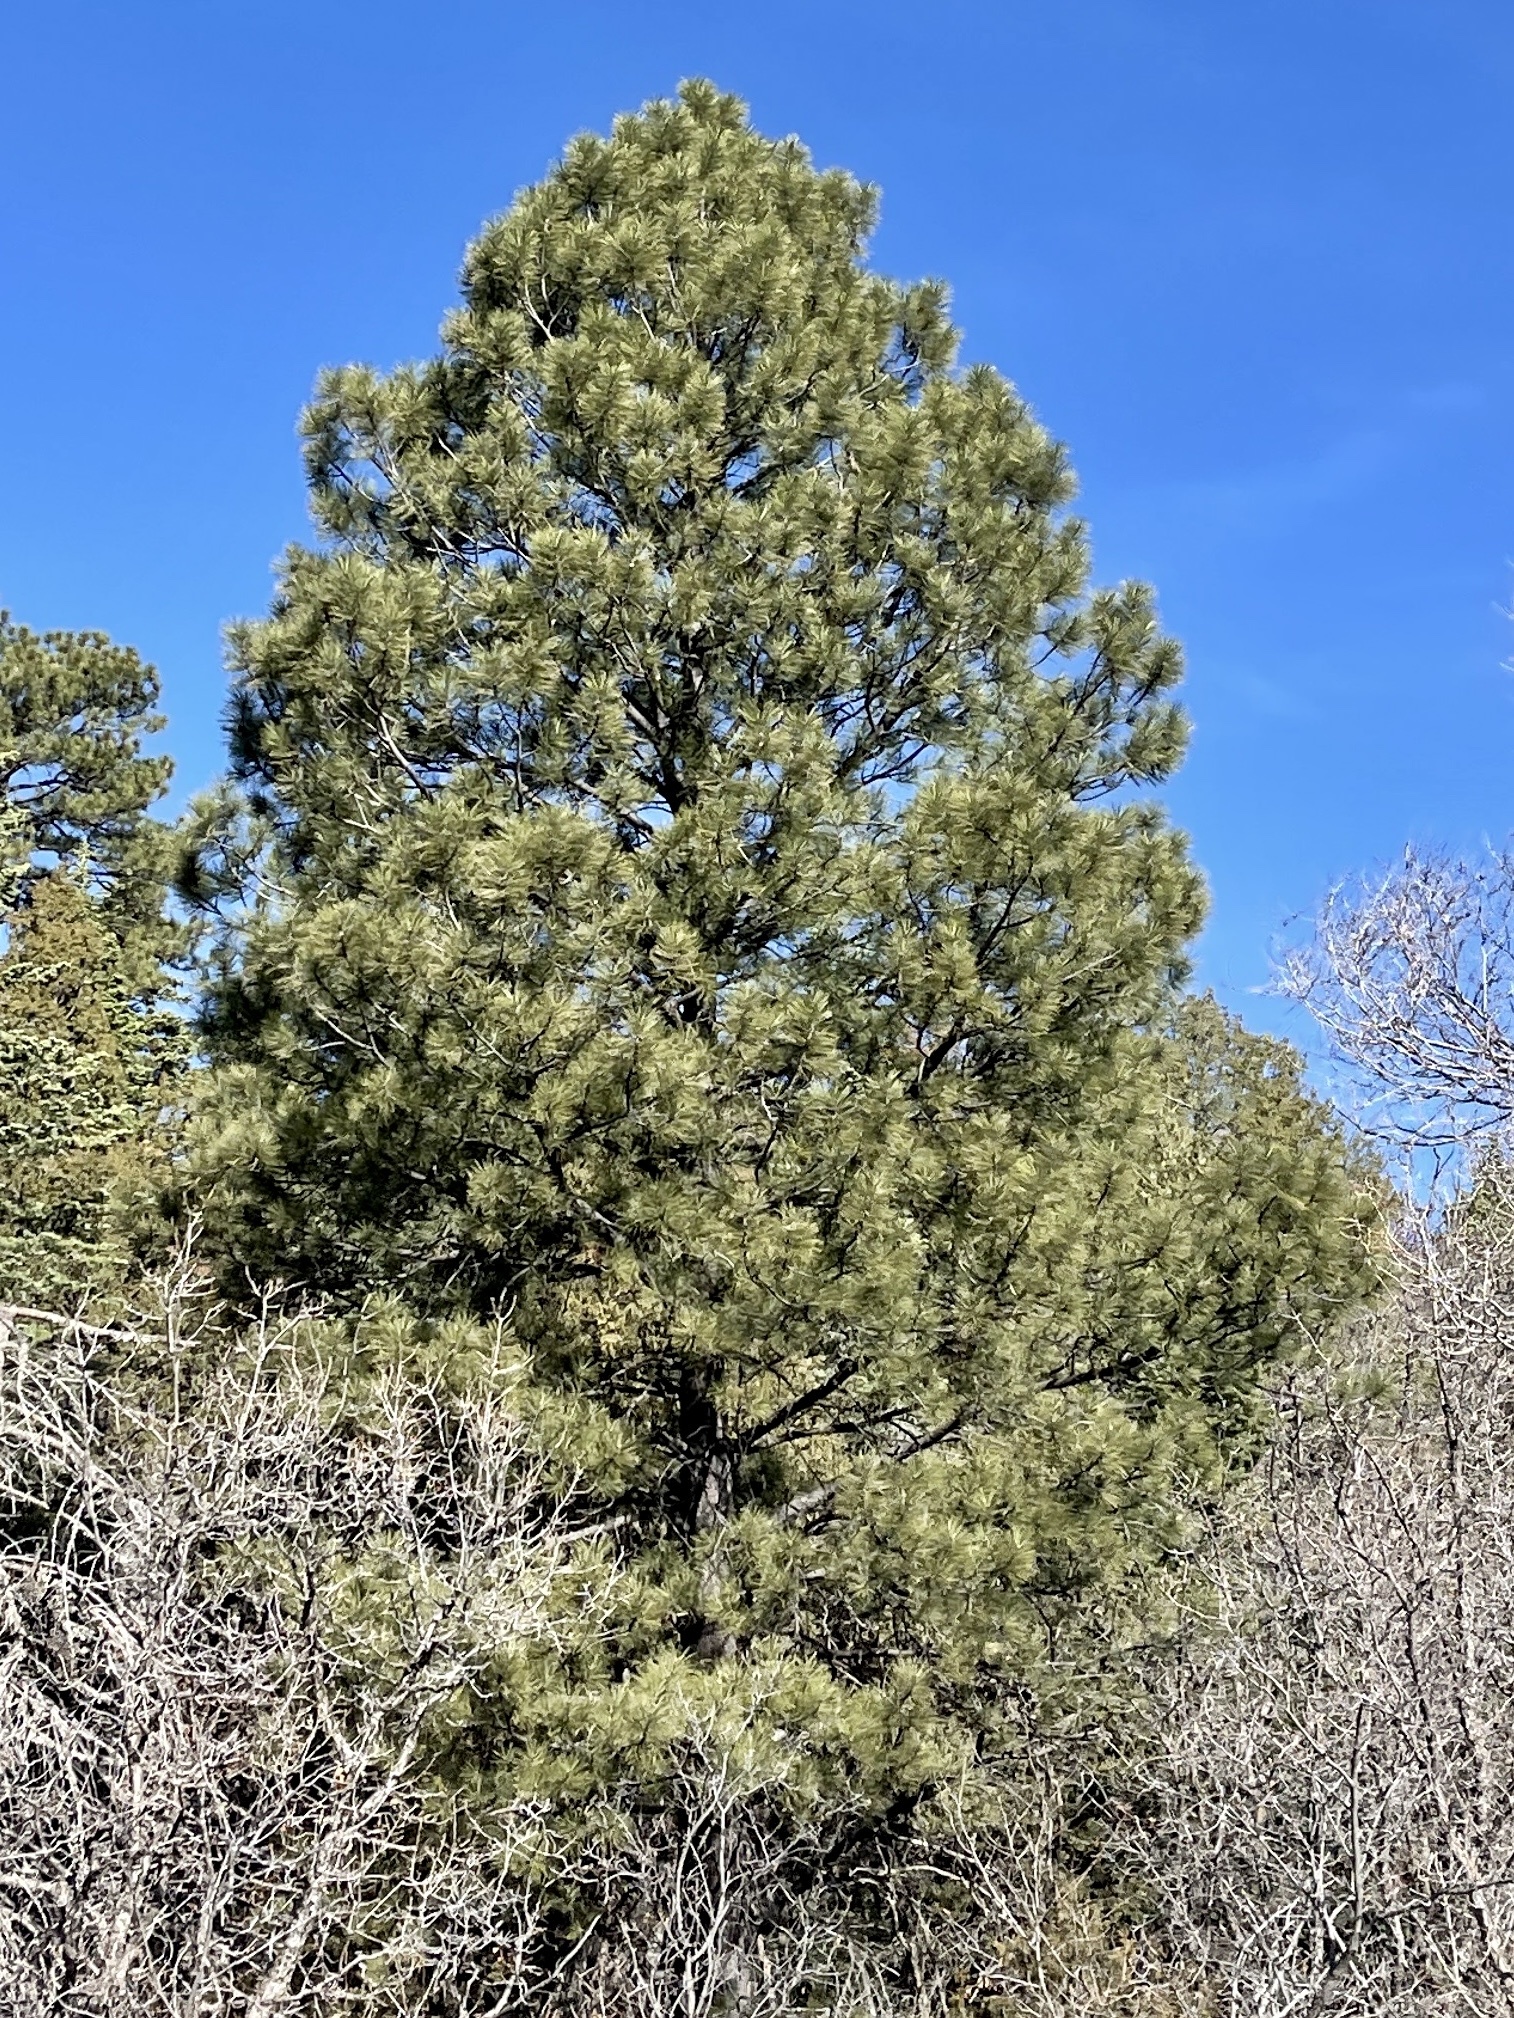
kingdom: Plantae
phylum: Tracheophyta
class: Pinopsida
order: Pinales
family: Pinaceae
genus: Pinus
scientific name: Pinus ponderosa
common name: Western yellow-pine
